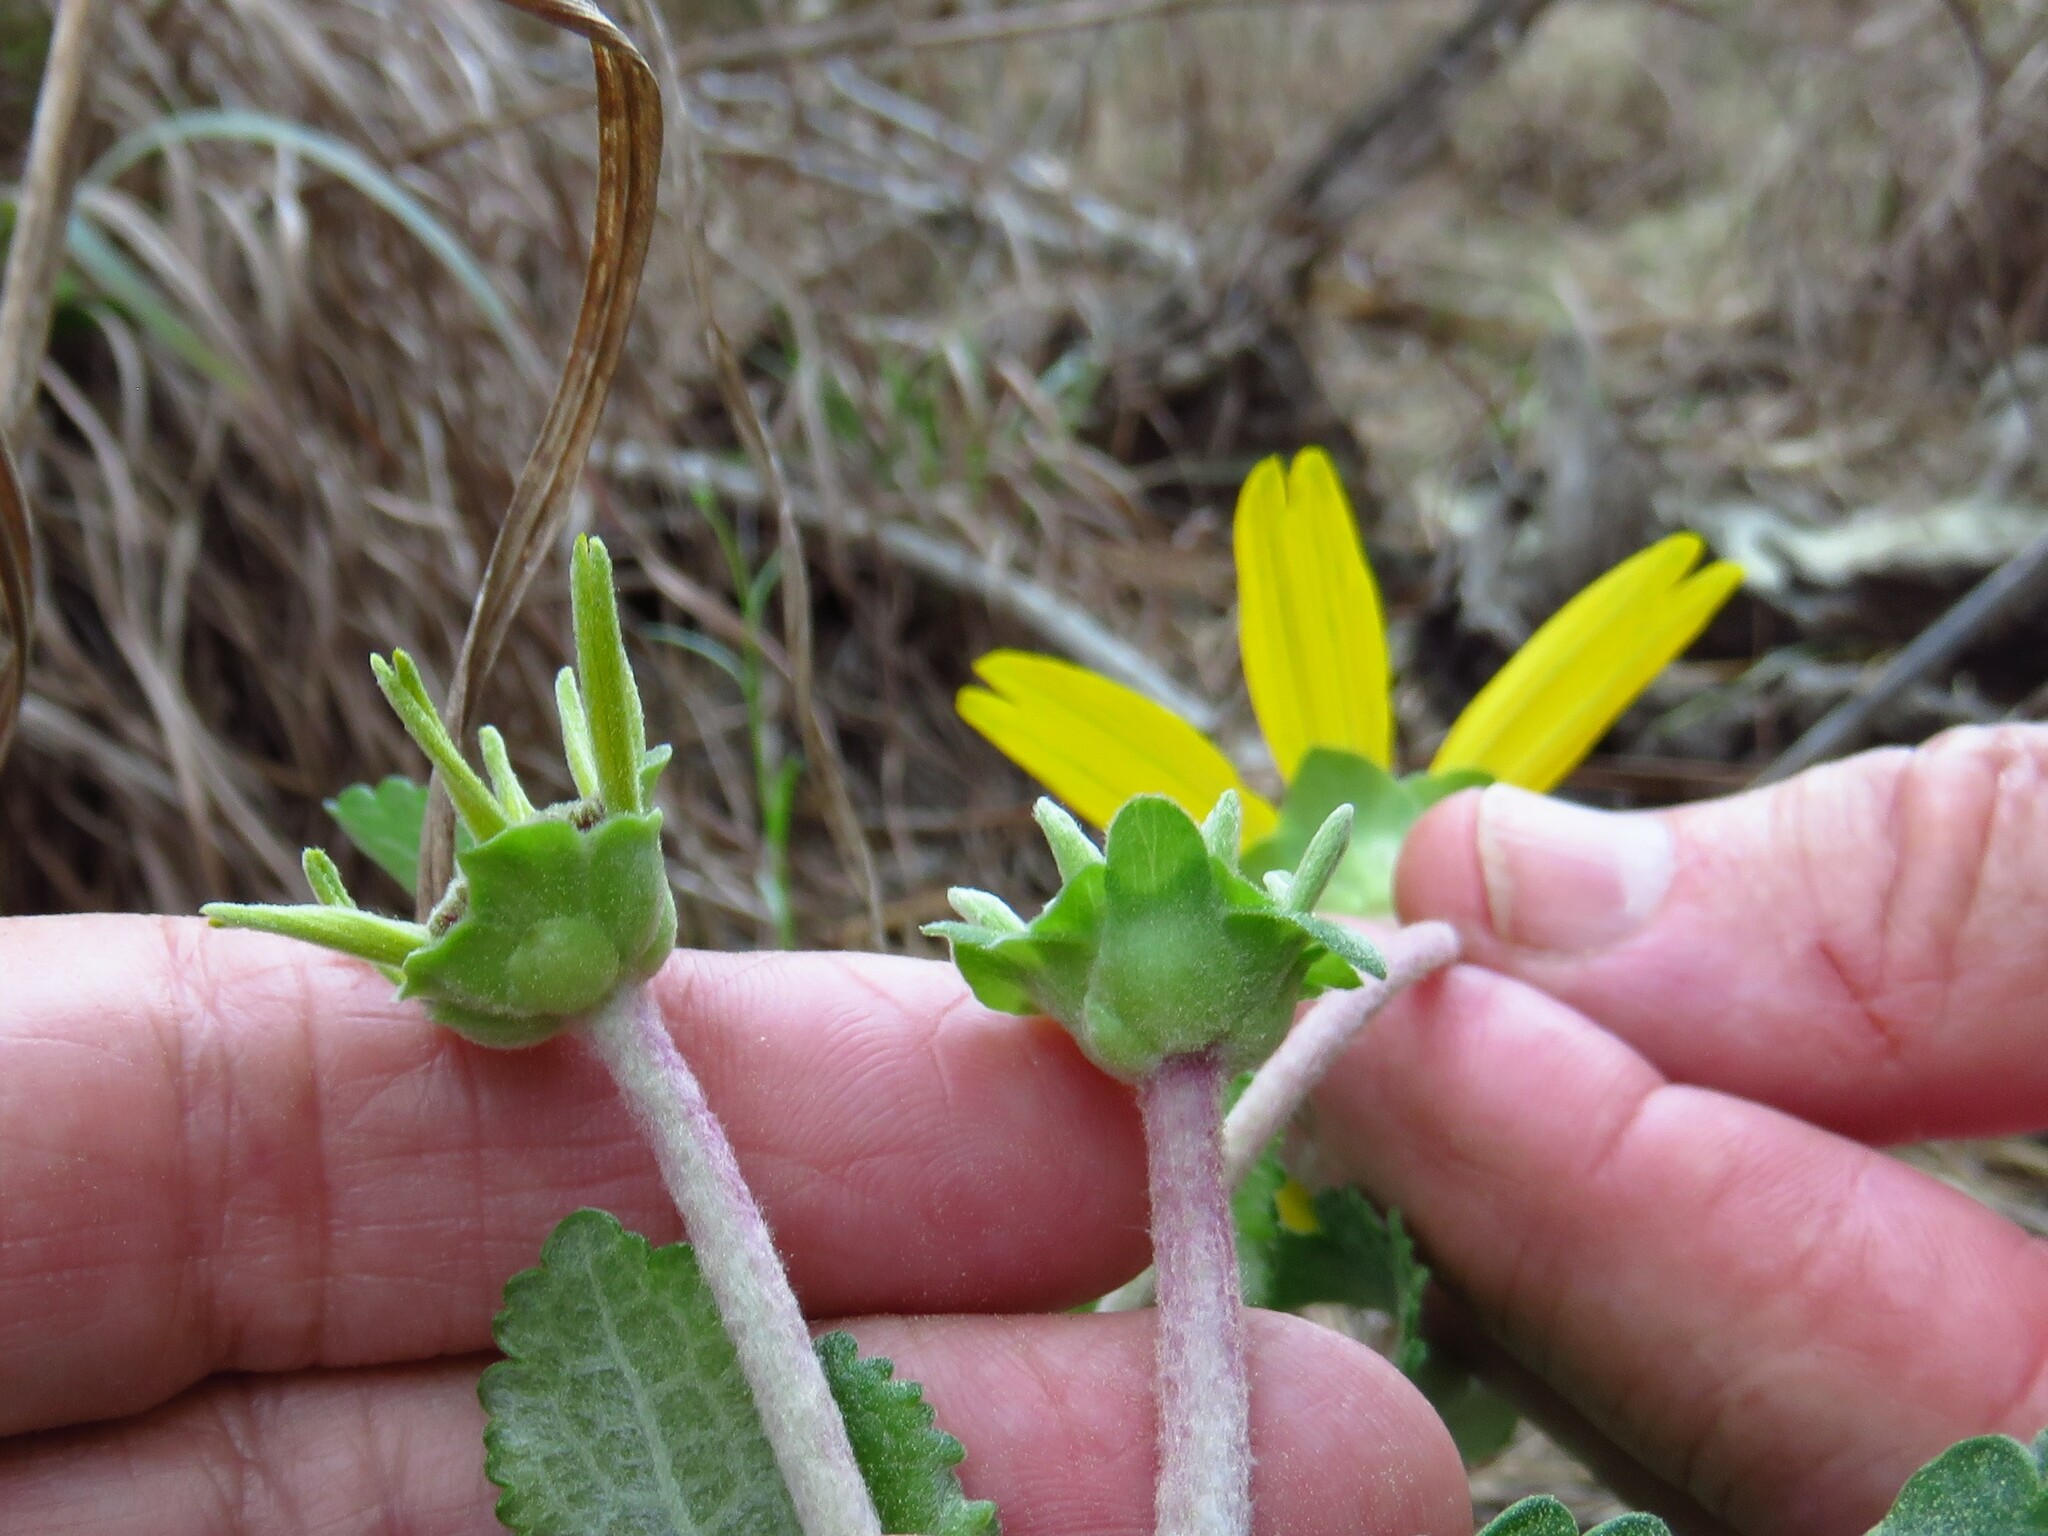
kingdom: Plantae
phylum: Tracheophyta
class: Magnoliopsida
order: Asterales
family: Asteraceae
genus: Berlandiera
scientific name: Berlandiera pumila
